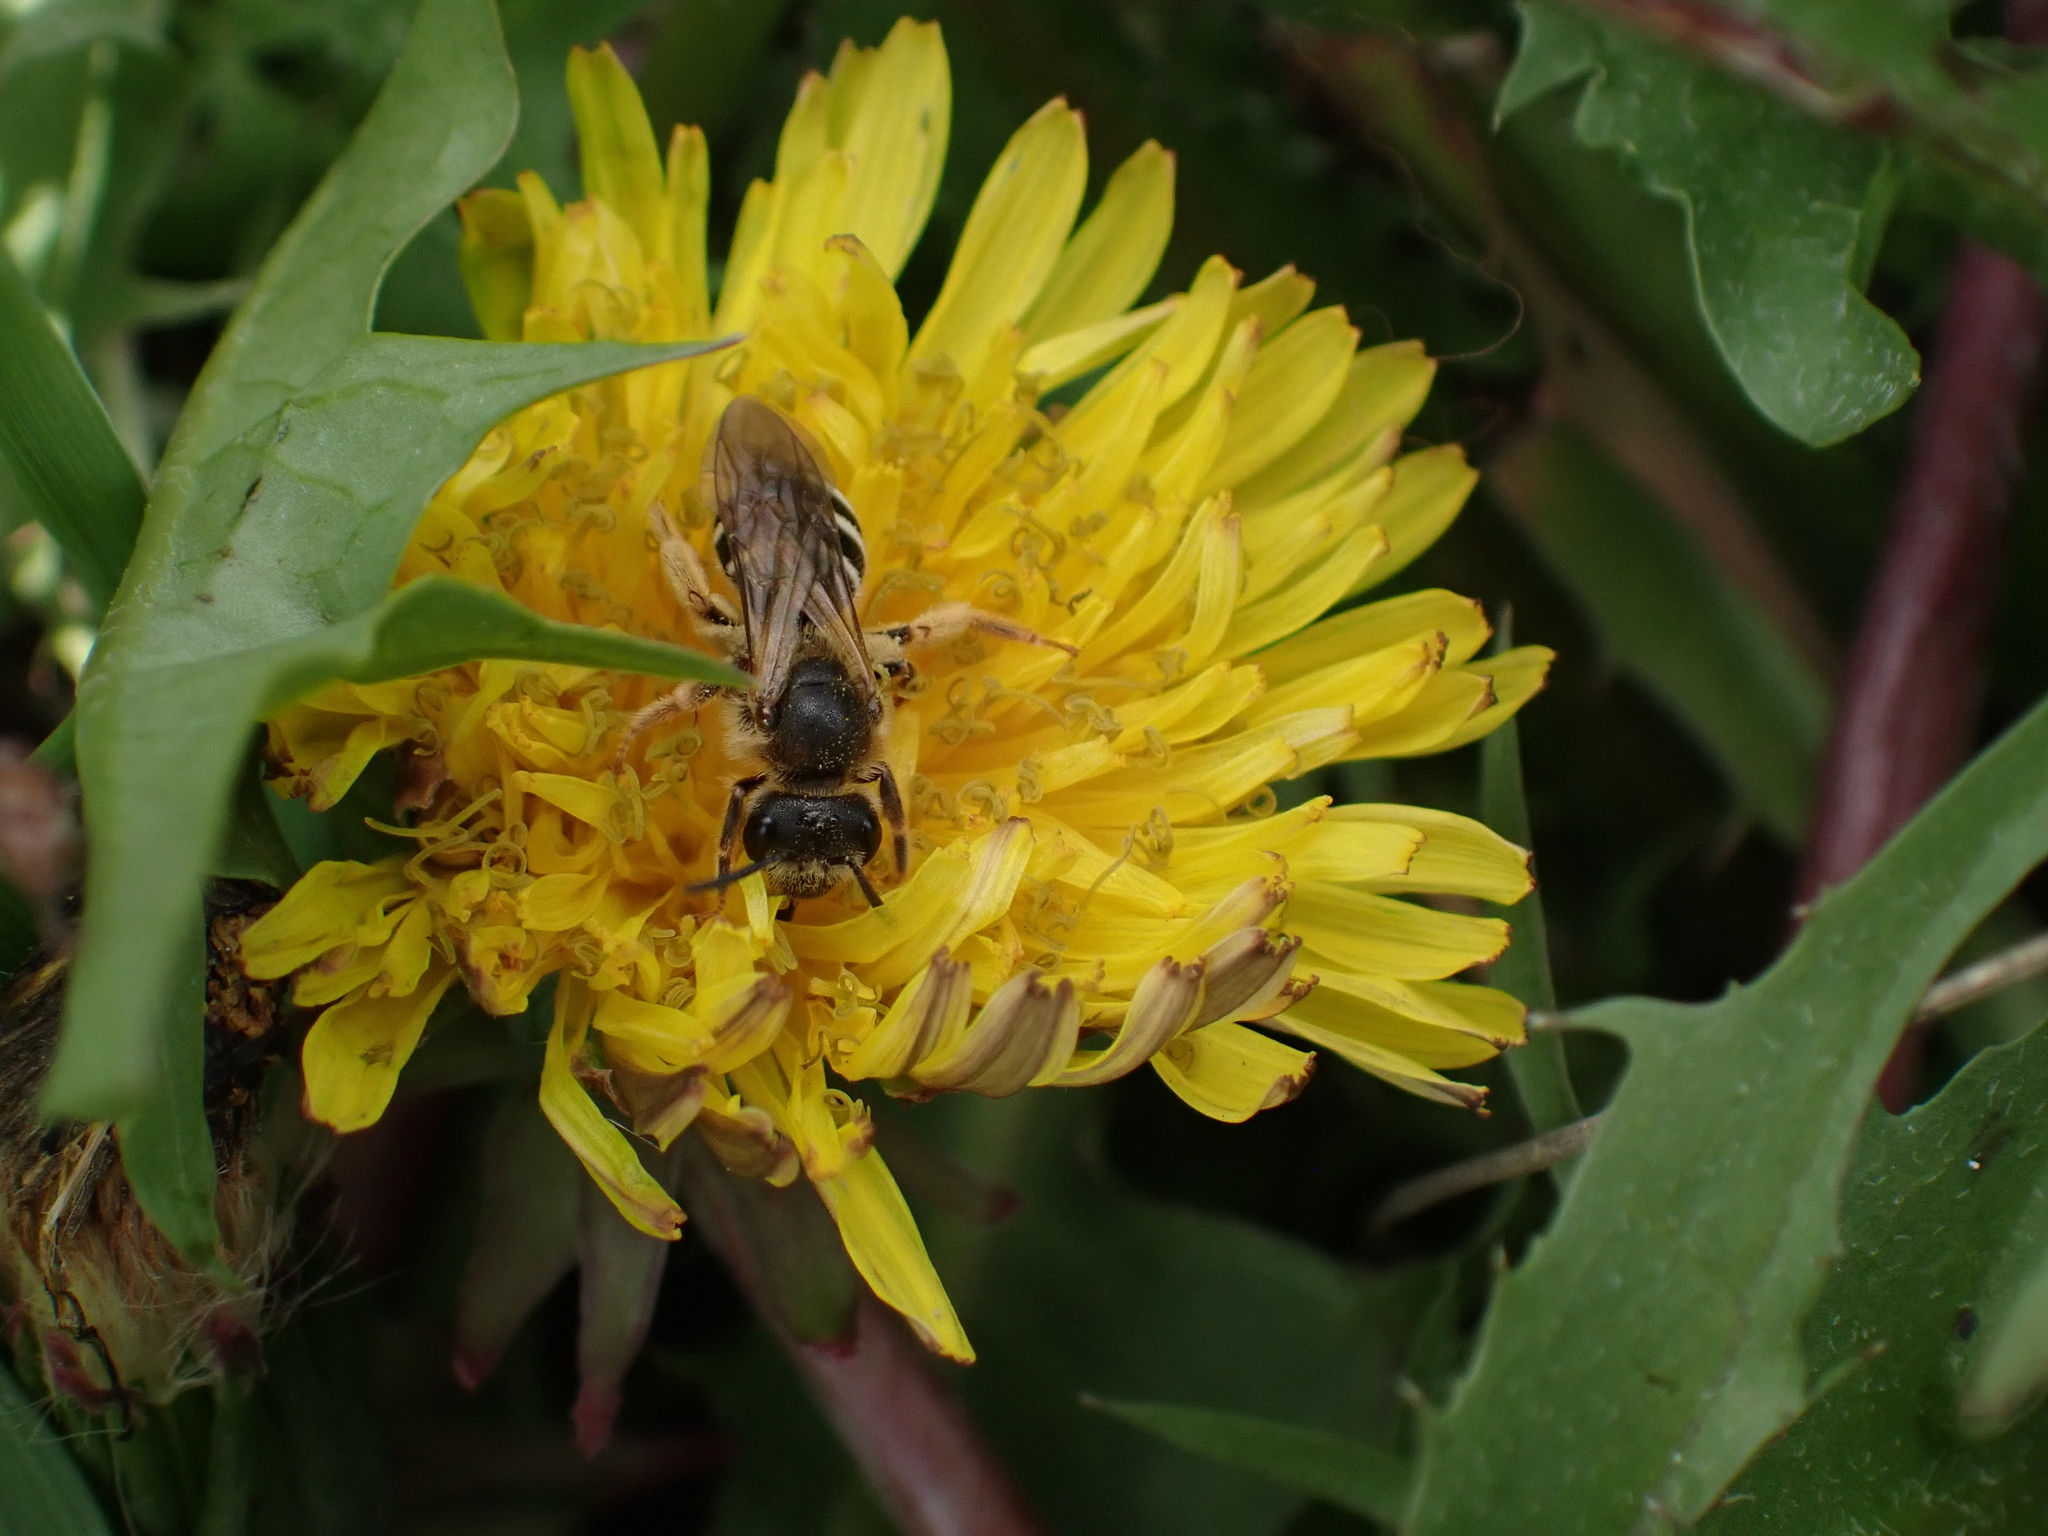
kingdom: Animalia
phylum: Arthropoda
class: Insecta
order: Hymenoptera
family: Halictidae
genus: Halictus
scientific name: Halictus rubicundus
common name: Orange-legged furrow bee
